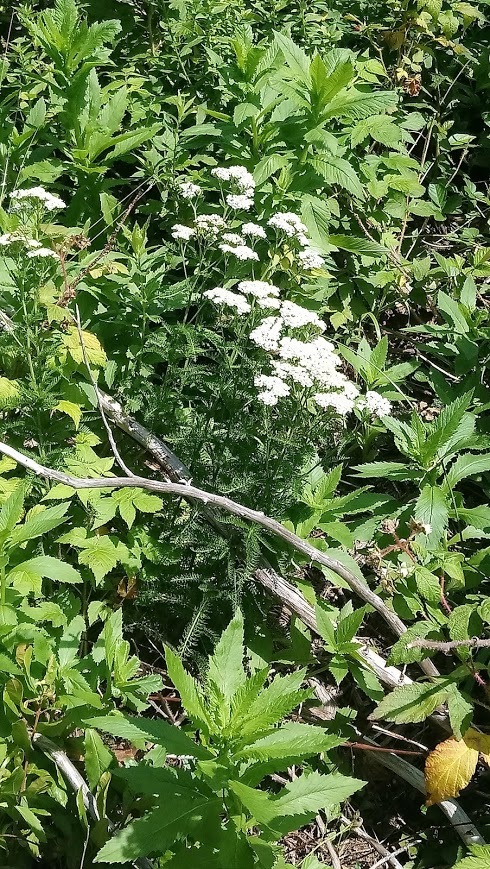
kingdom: Plantae
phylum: Tracheophyta
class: Magnoliopsida
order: Asterales
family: Asteraceae
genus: Achillea
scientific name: Achillea millefolium
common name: Yarrow
